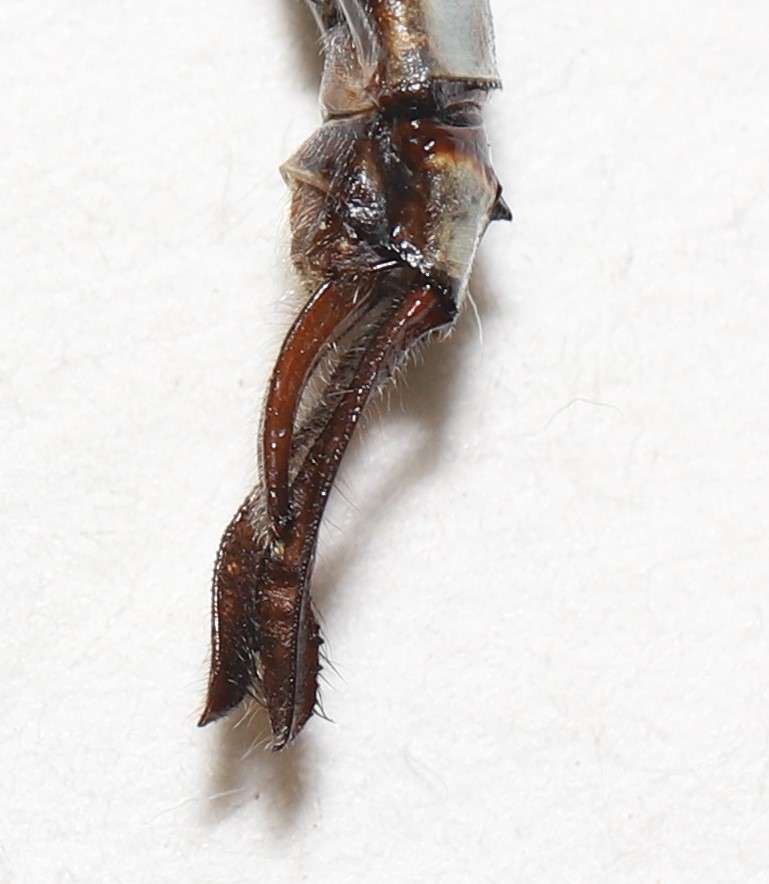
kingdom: Animalia
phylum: Arthropoda
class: Insecta
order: Odonata
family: Aeshnidae
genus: Aeshna
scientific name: Aeshna canadensis
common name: Canada darner
